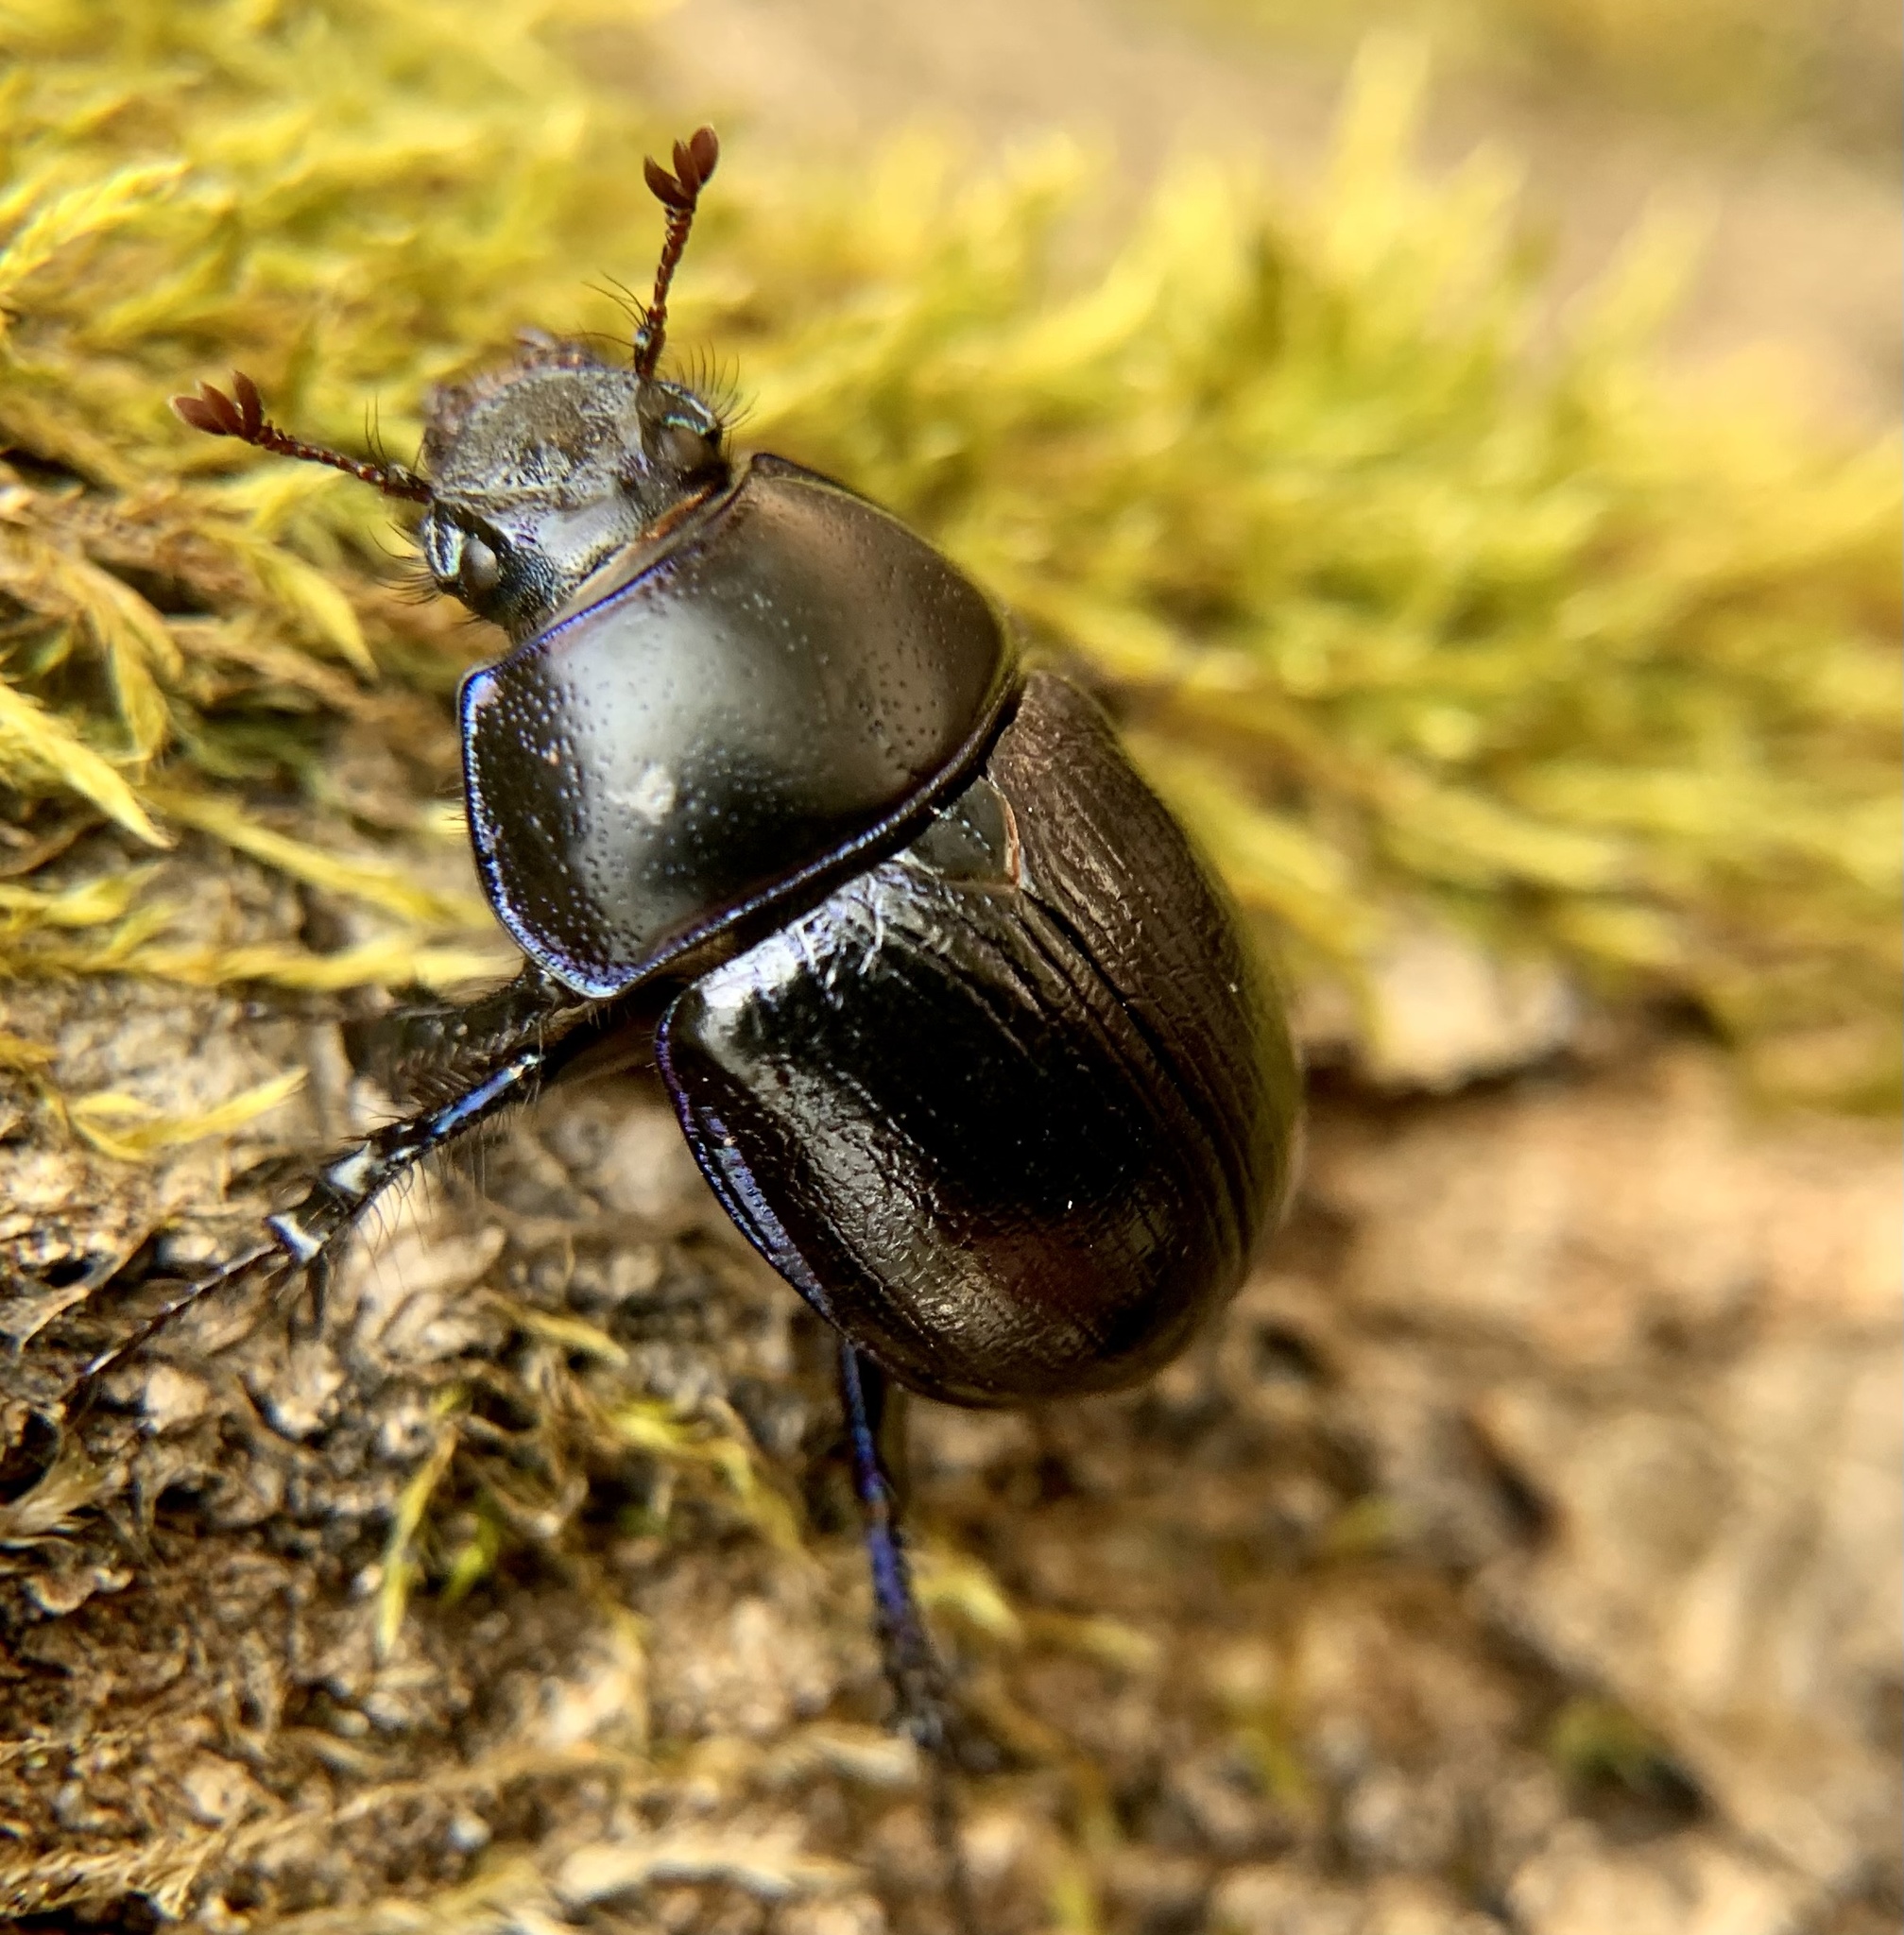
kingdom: Animalia
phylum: Arthropoda
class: Insecta
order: Coleoptera
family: Geotrupidae
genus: Anoplotrupes
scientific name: Anoplotrupes stercorosus
